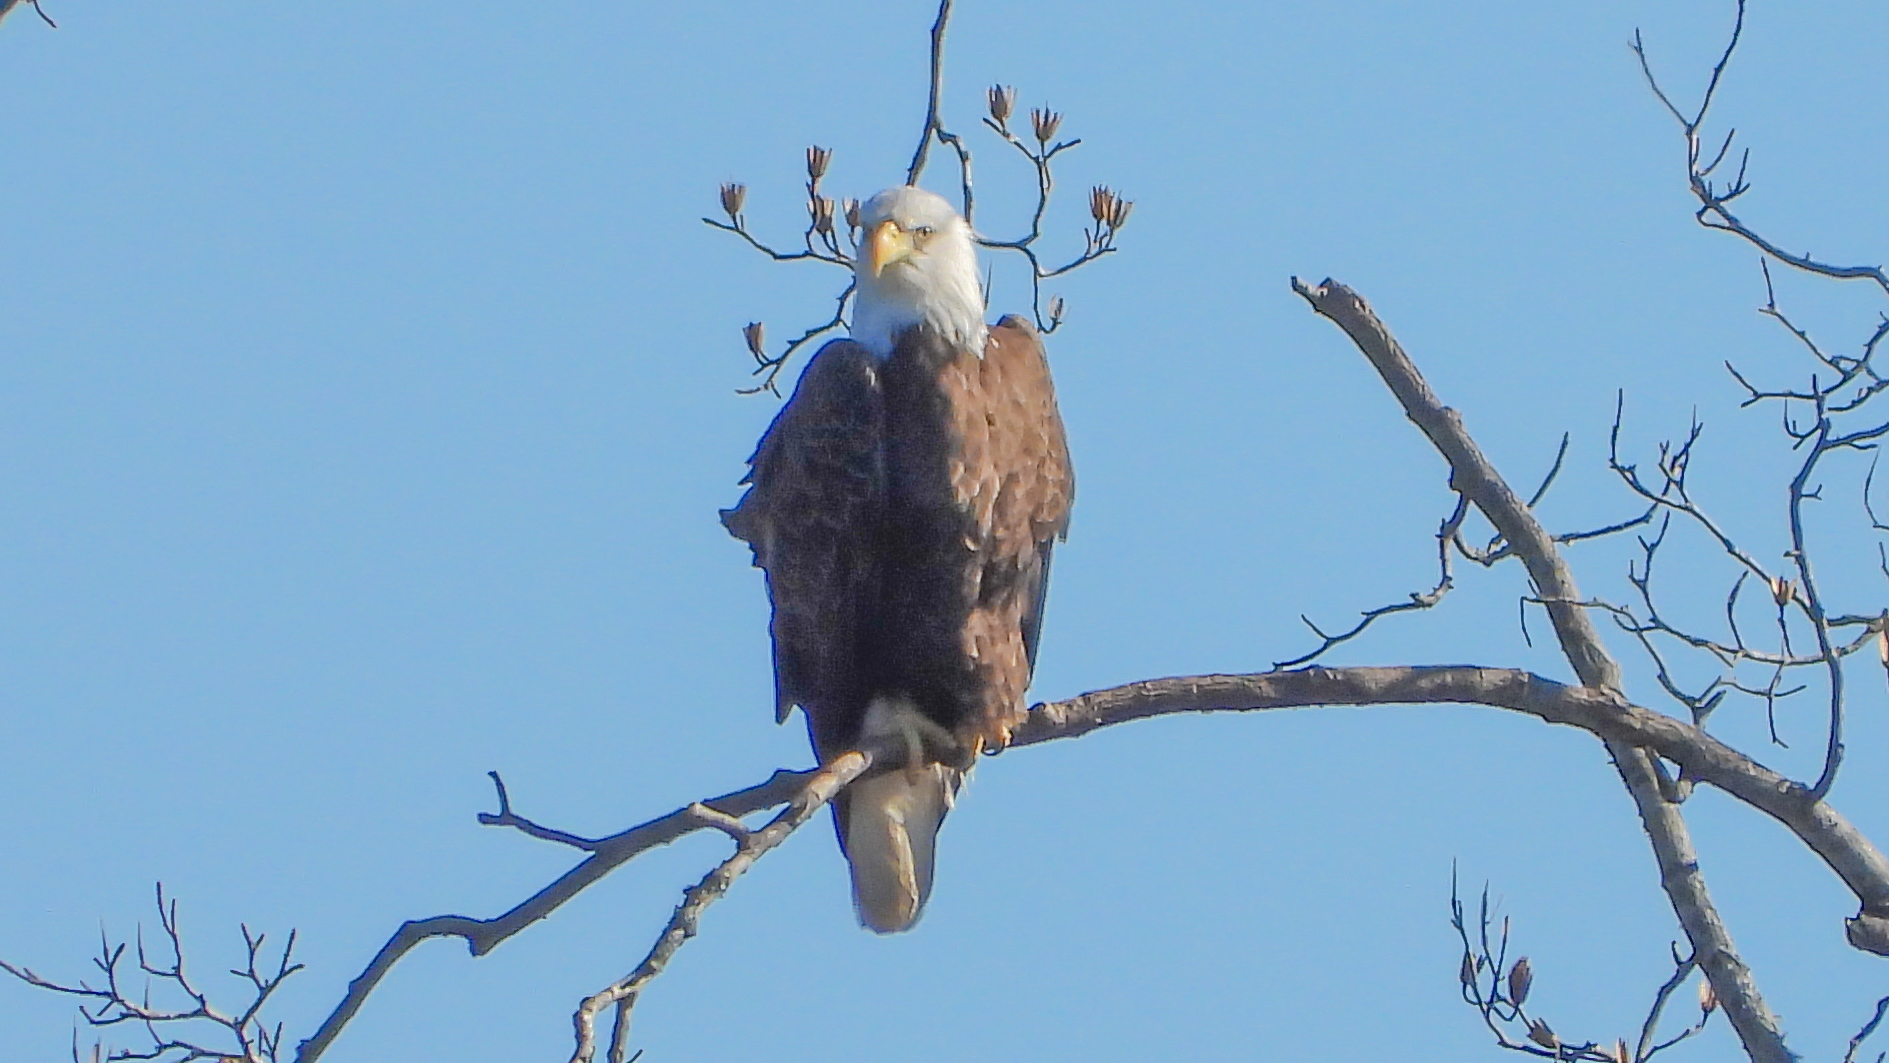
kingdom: Animalia
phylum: Chordata
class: Aves
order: Accipitriformes
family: Accipitridae
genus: Haliaeetus
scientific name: Haliaeetus leucocephalus
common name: Bald eagle
